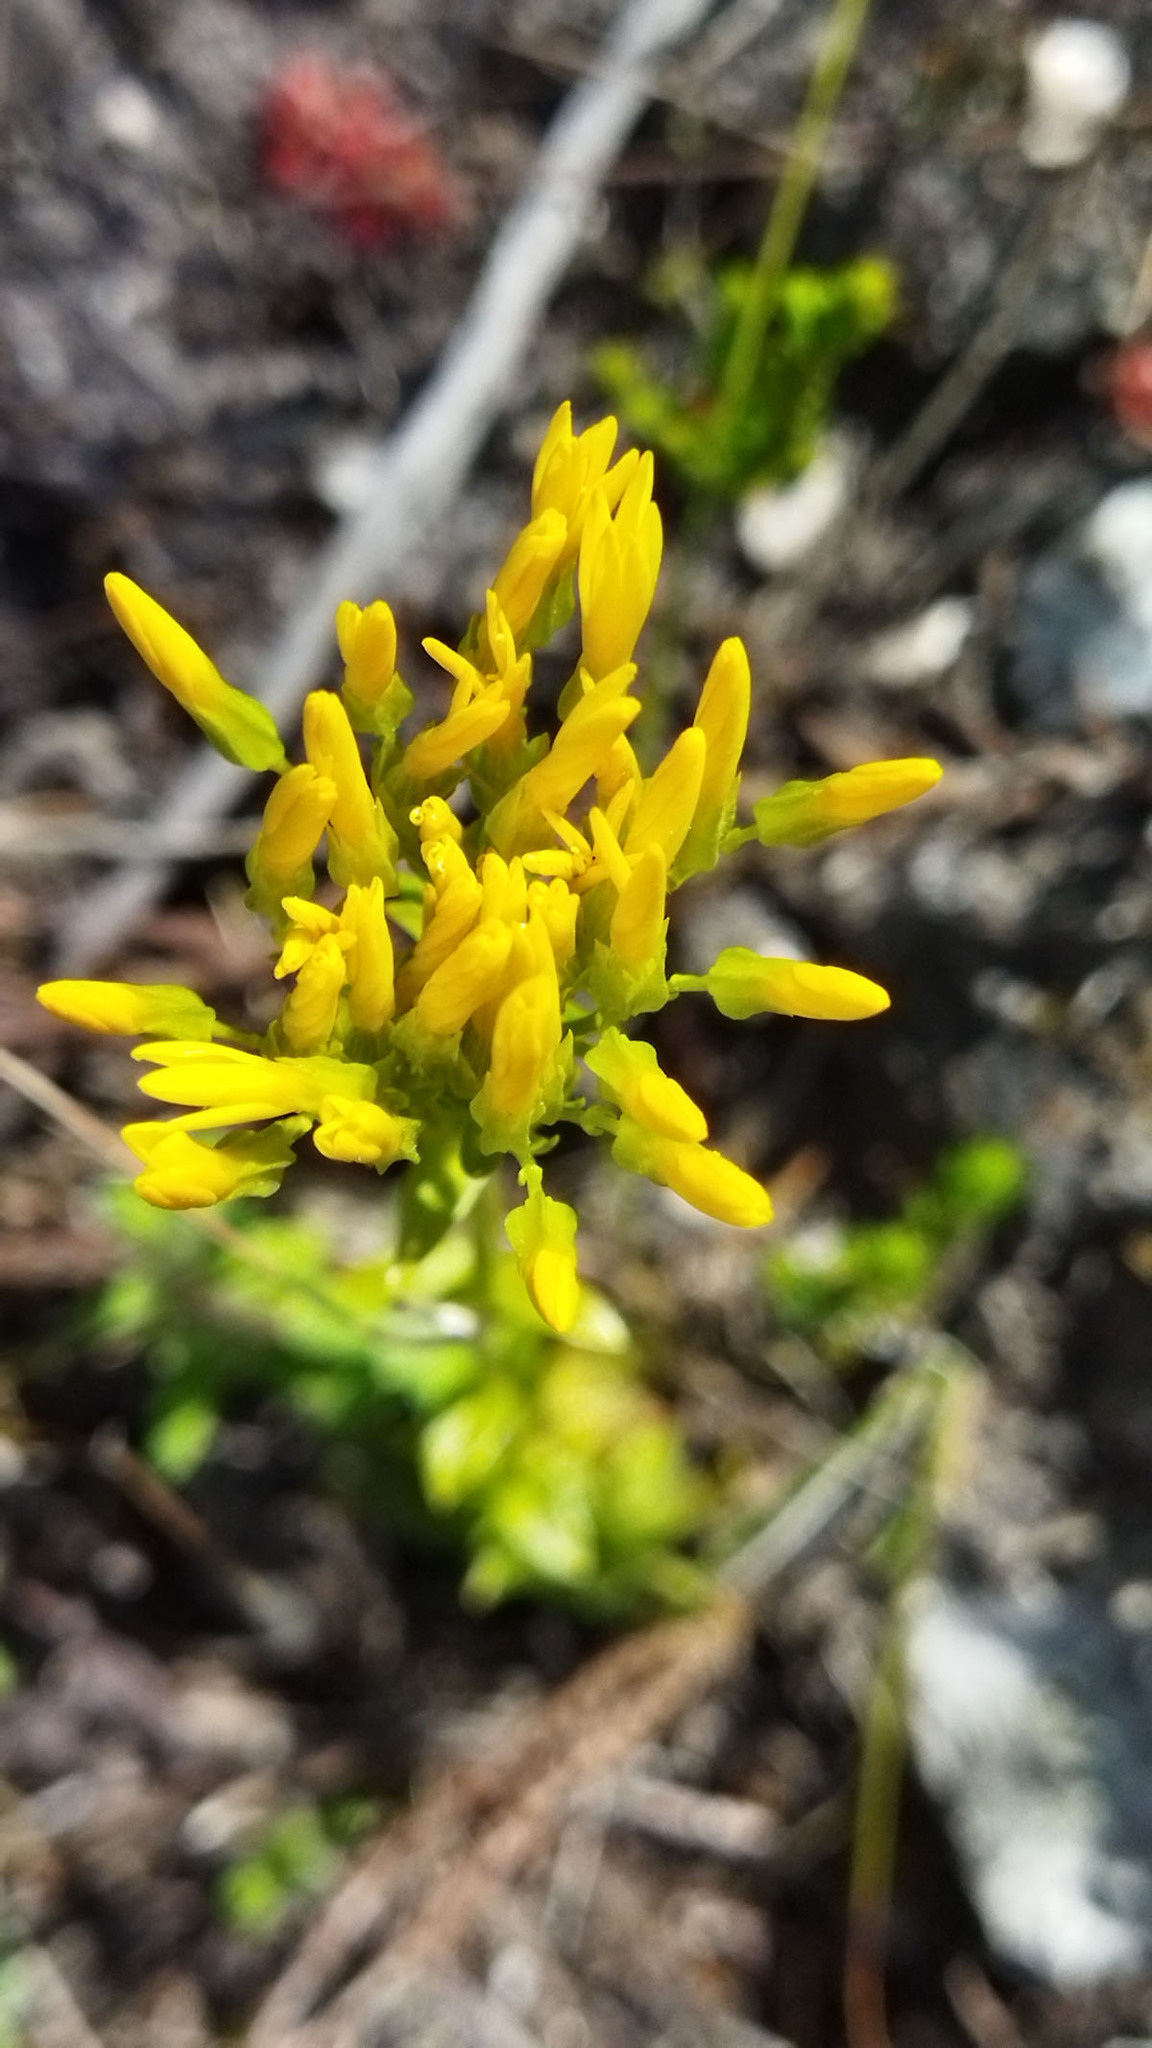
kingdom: Plantae
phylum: Tracheophyta
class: Magnoliopsida
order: Gentianales
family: Gentianaceae
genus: Sebaea
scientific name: Sebaea exacoides
